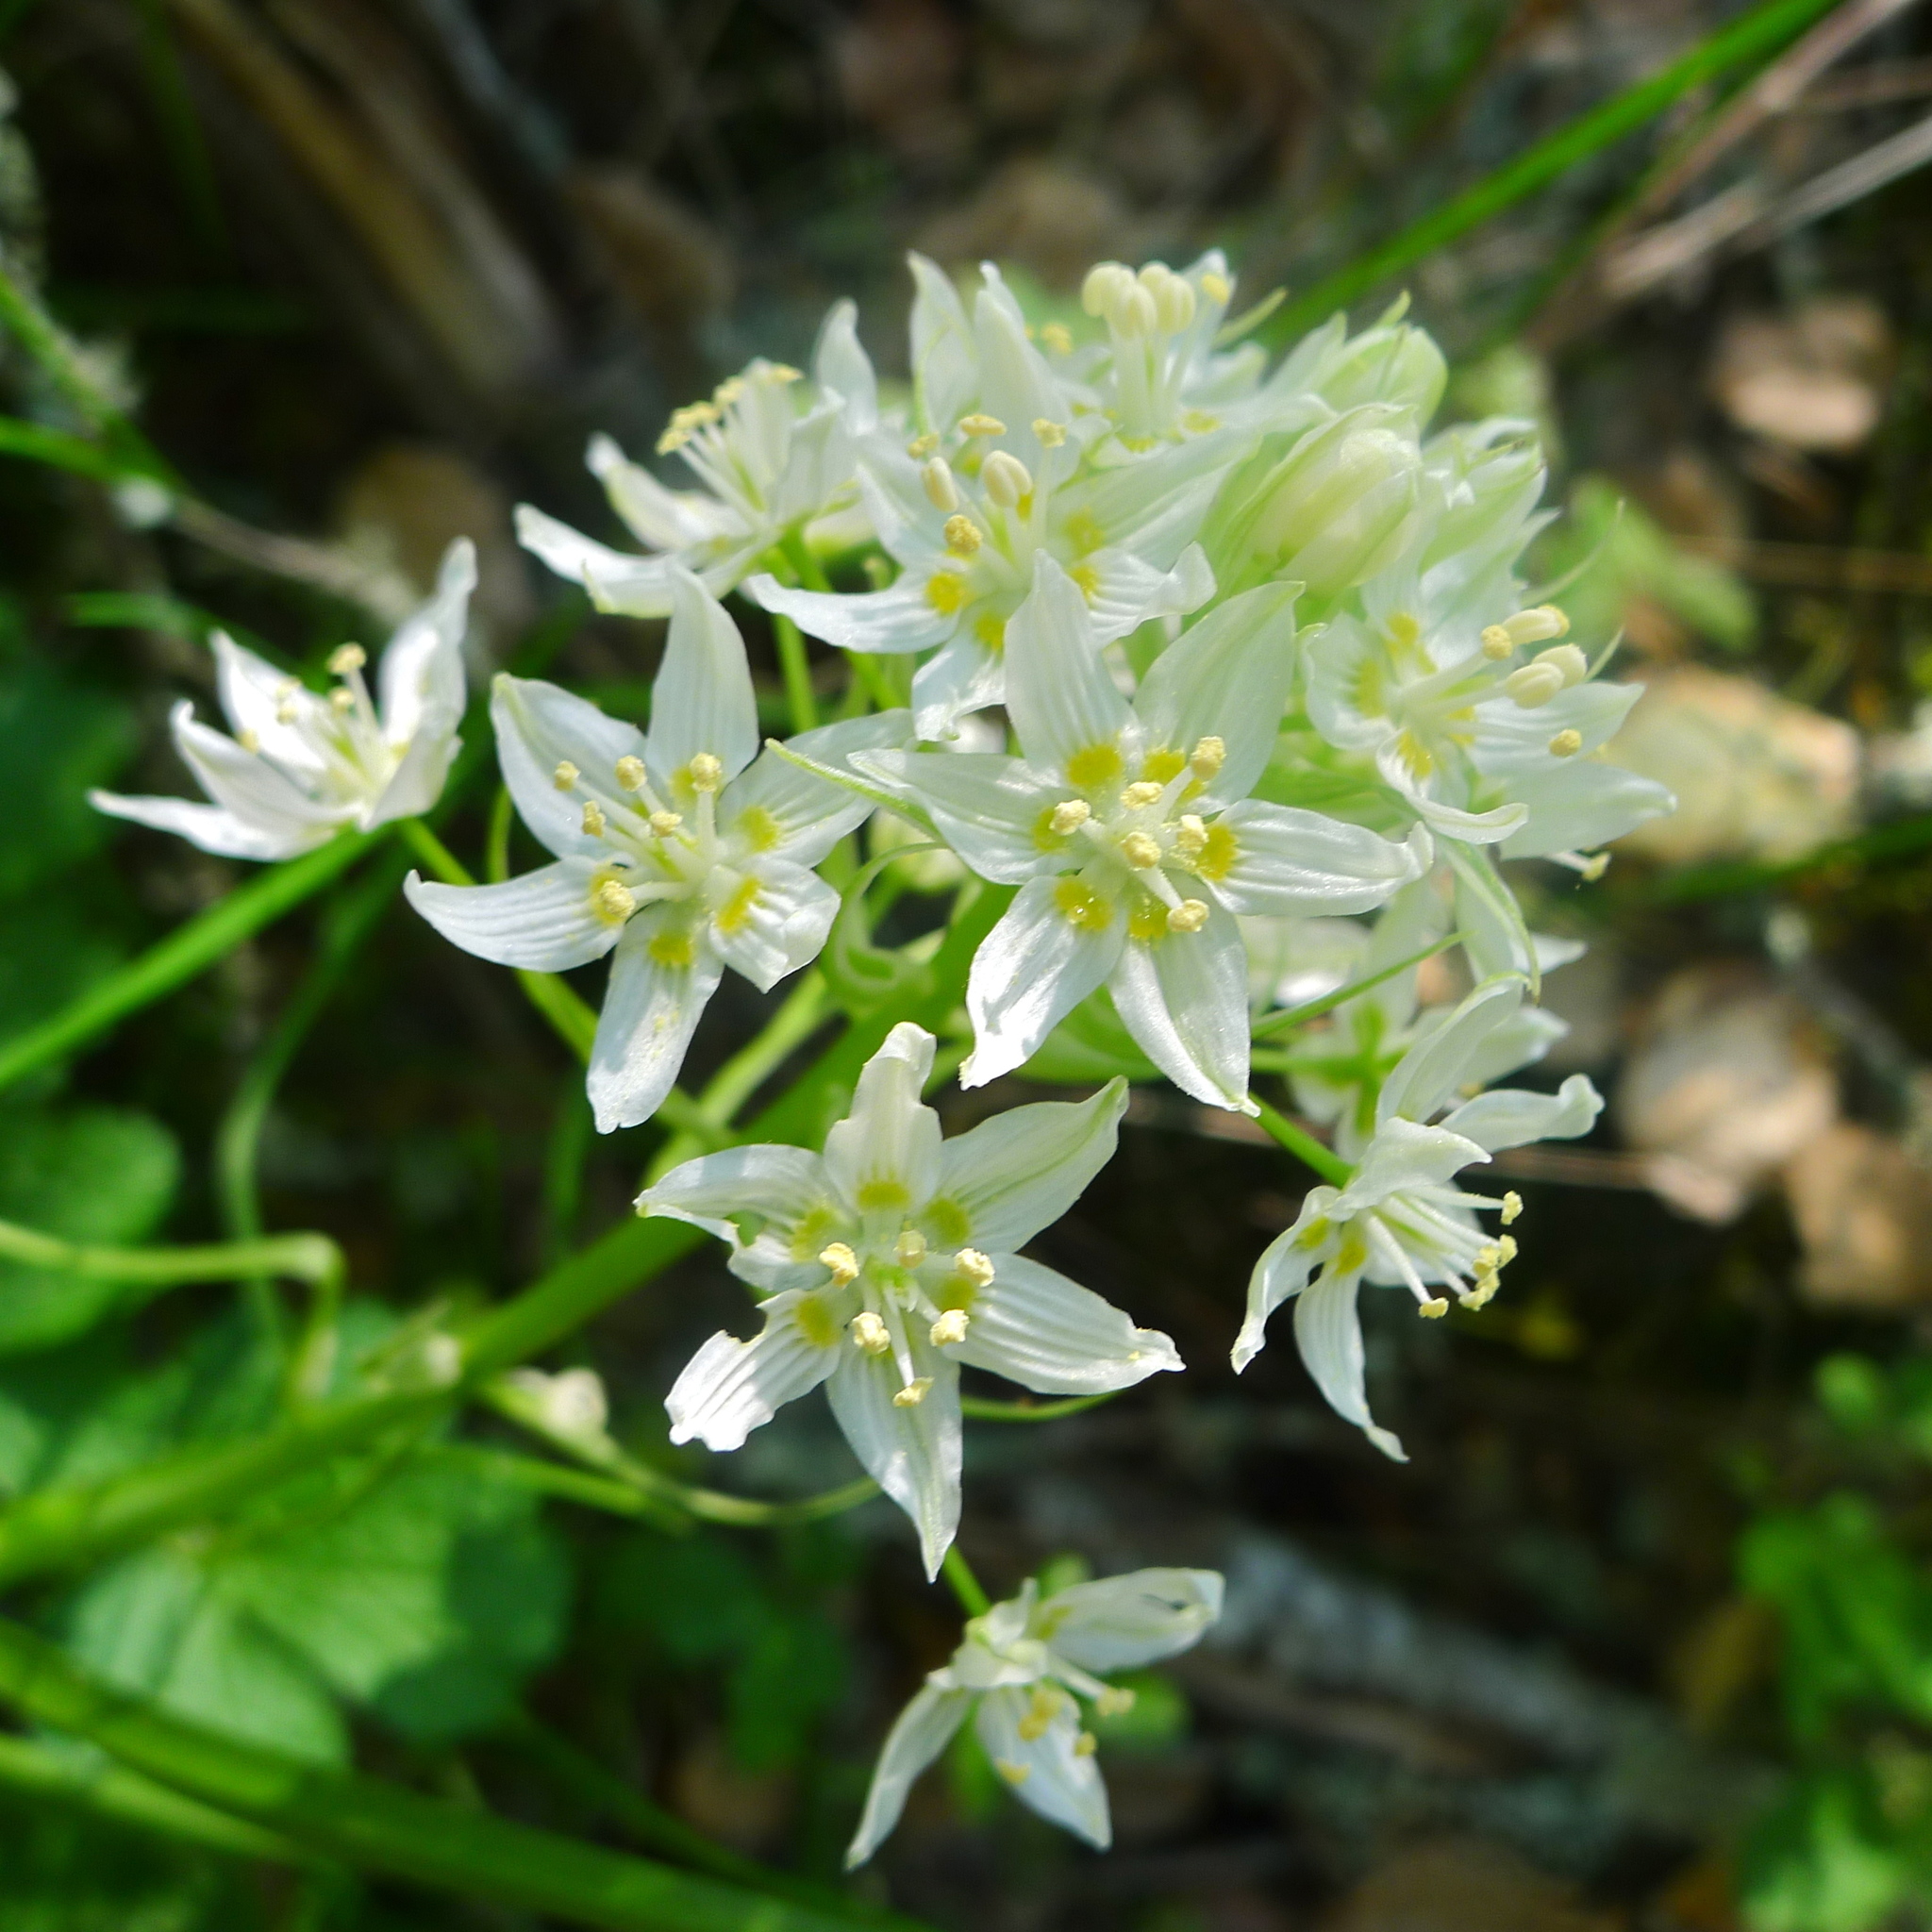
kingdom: Plantae
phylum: Tracheophyta
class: Liliopsida
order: Liliales
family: Melanthiaceae
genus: Toxicoscordion
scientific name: Toxicoscordion fremontii
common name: Fremont's death camas
